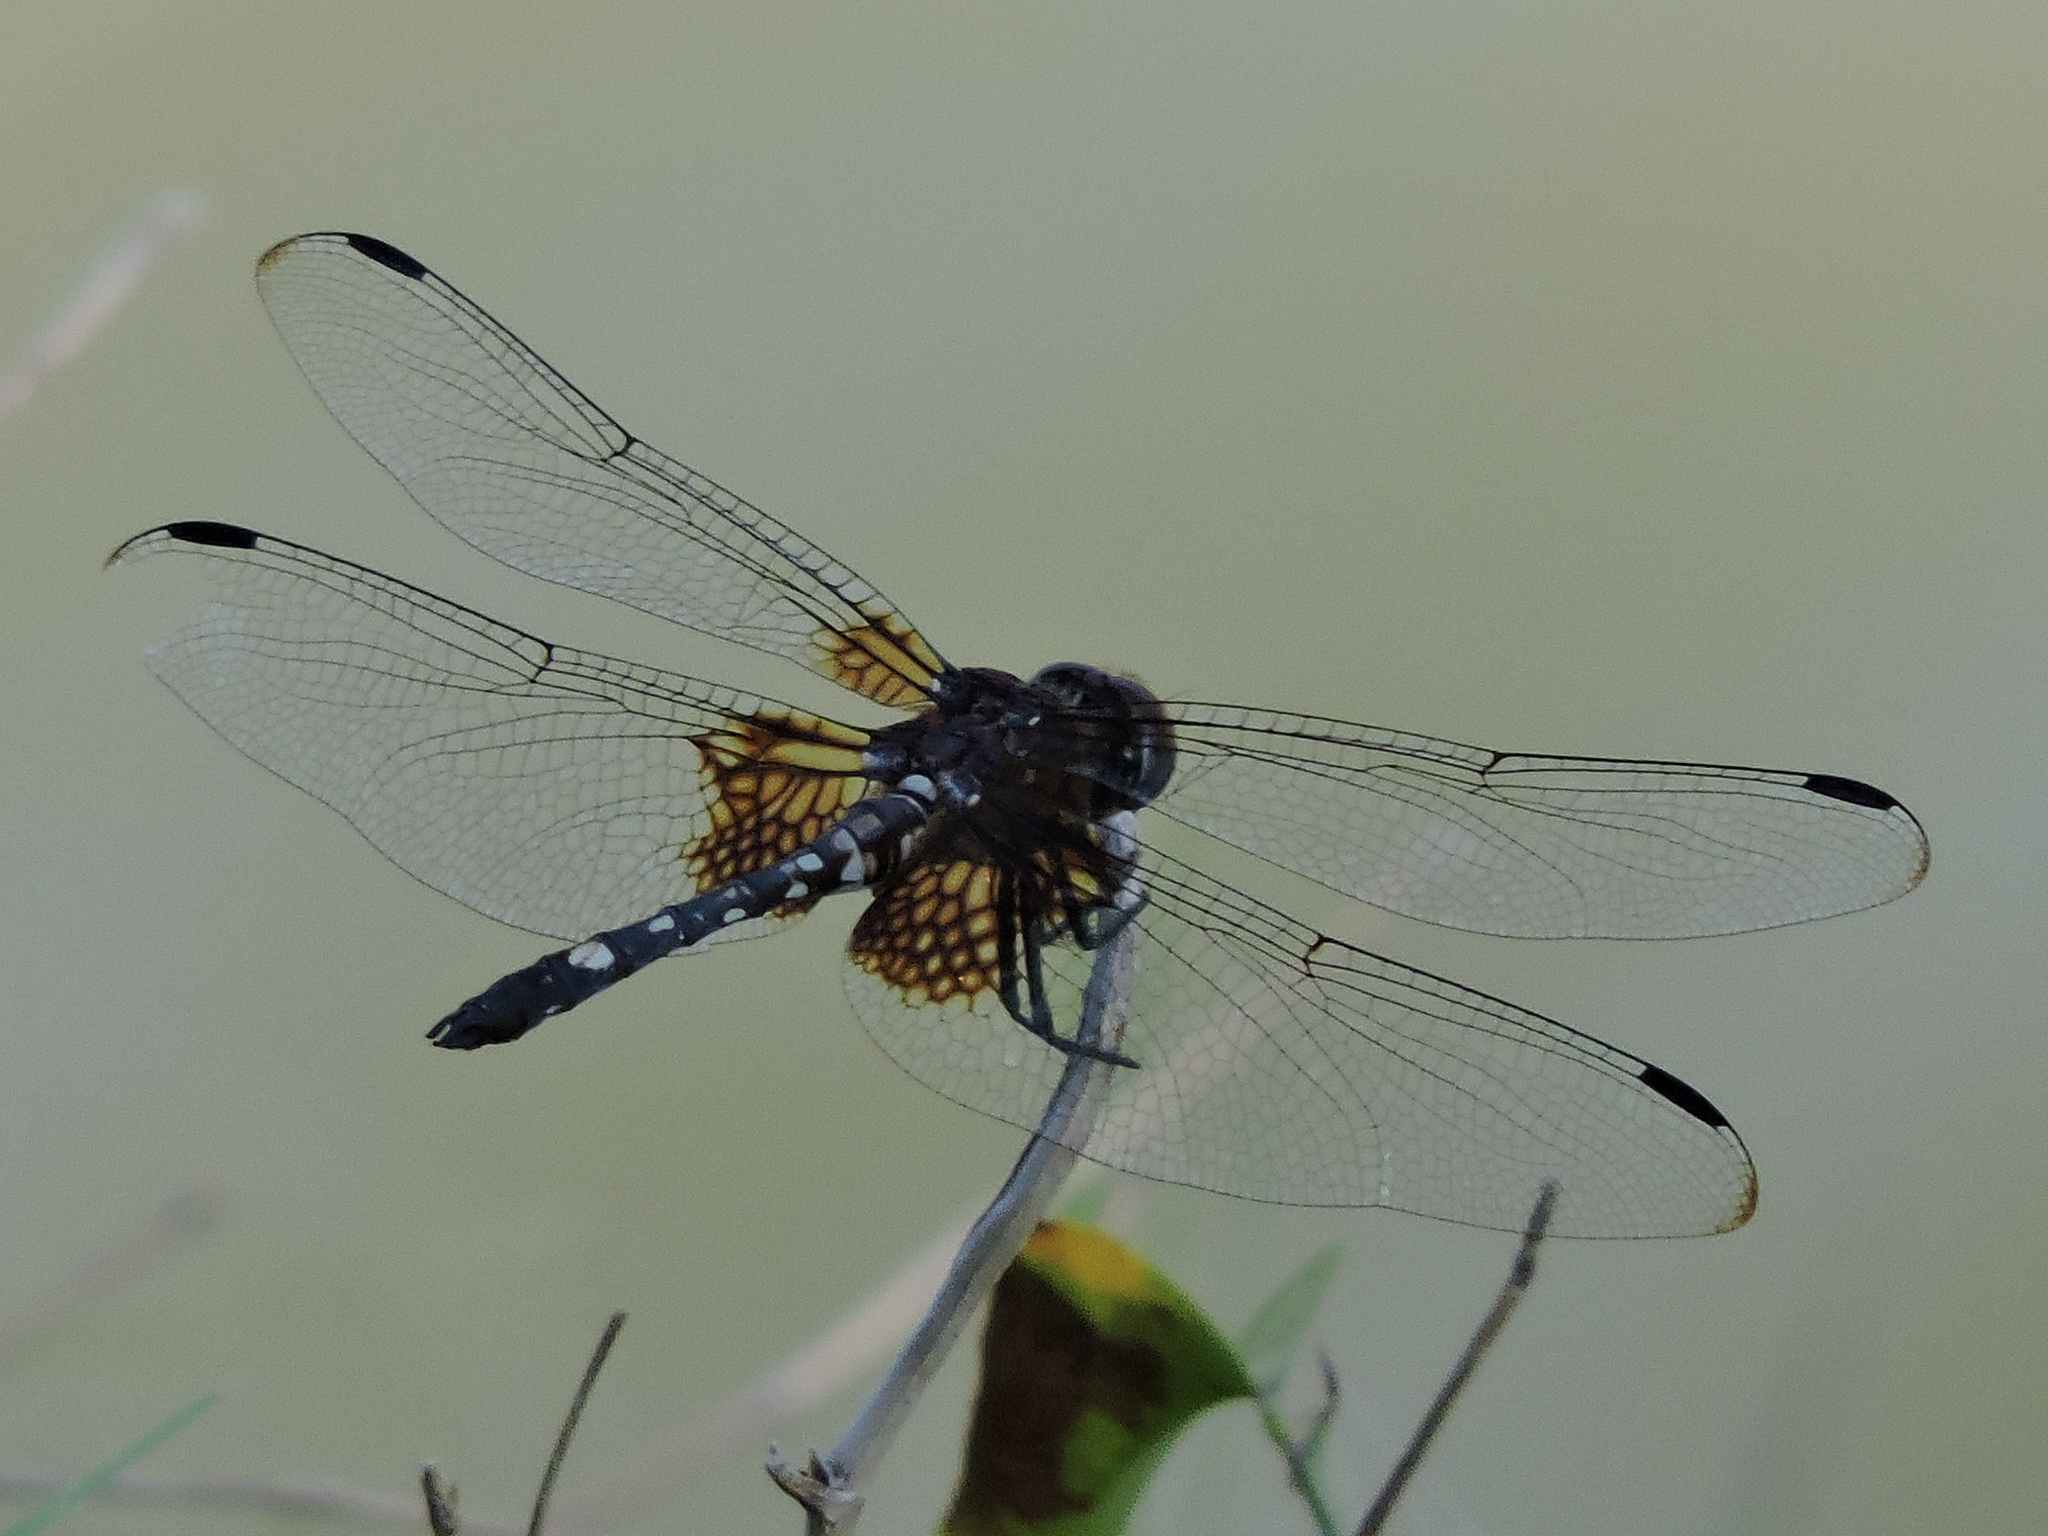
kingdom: Animalia
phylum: Arthropoda
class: Insecta
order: Odonata
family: Libellulidae
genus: Dythemis
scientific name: Dythemis fugax
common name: Checkered setwing
